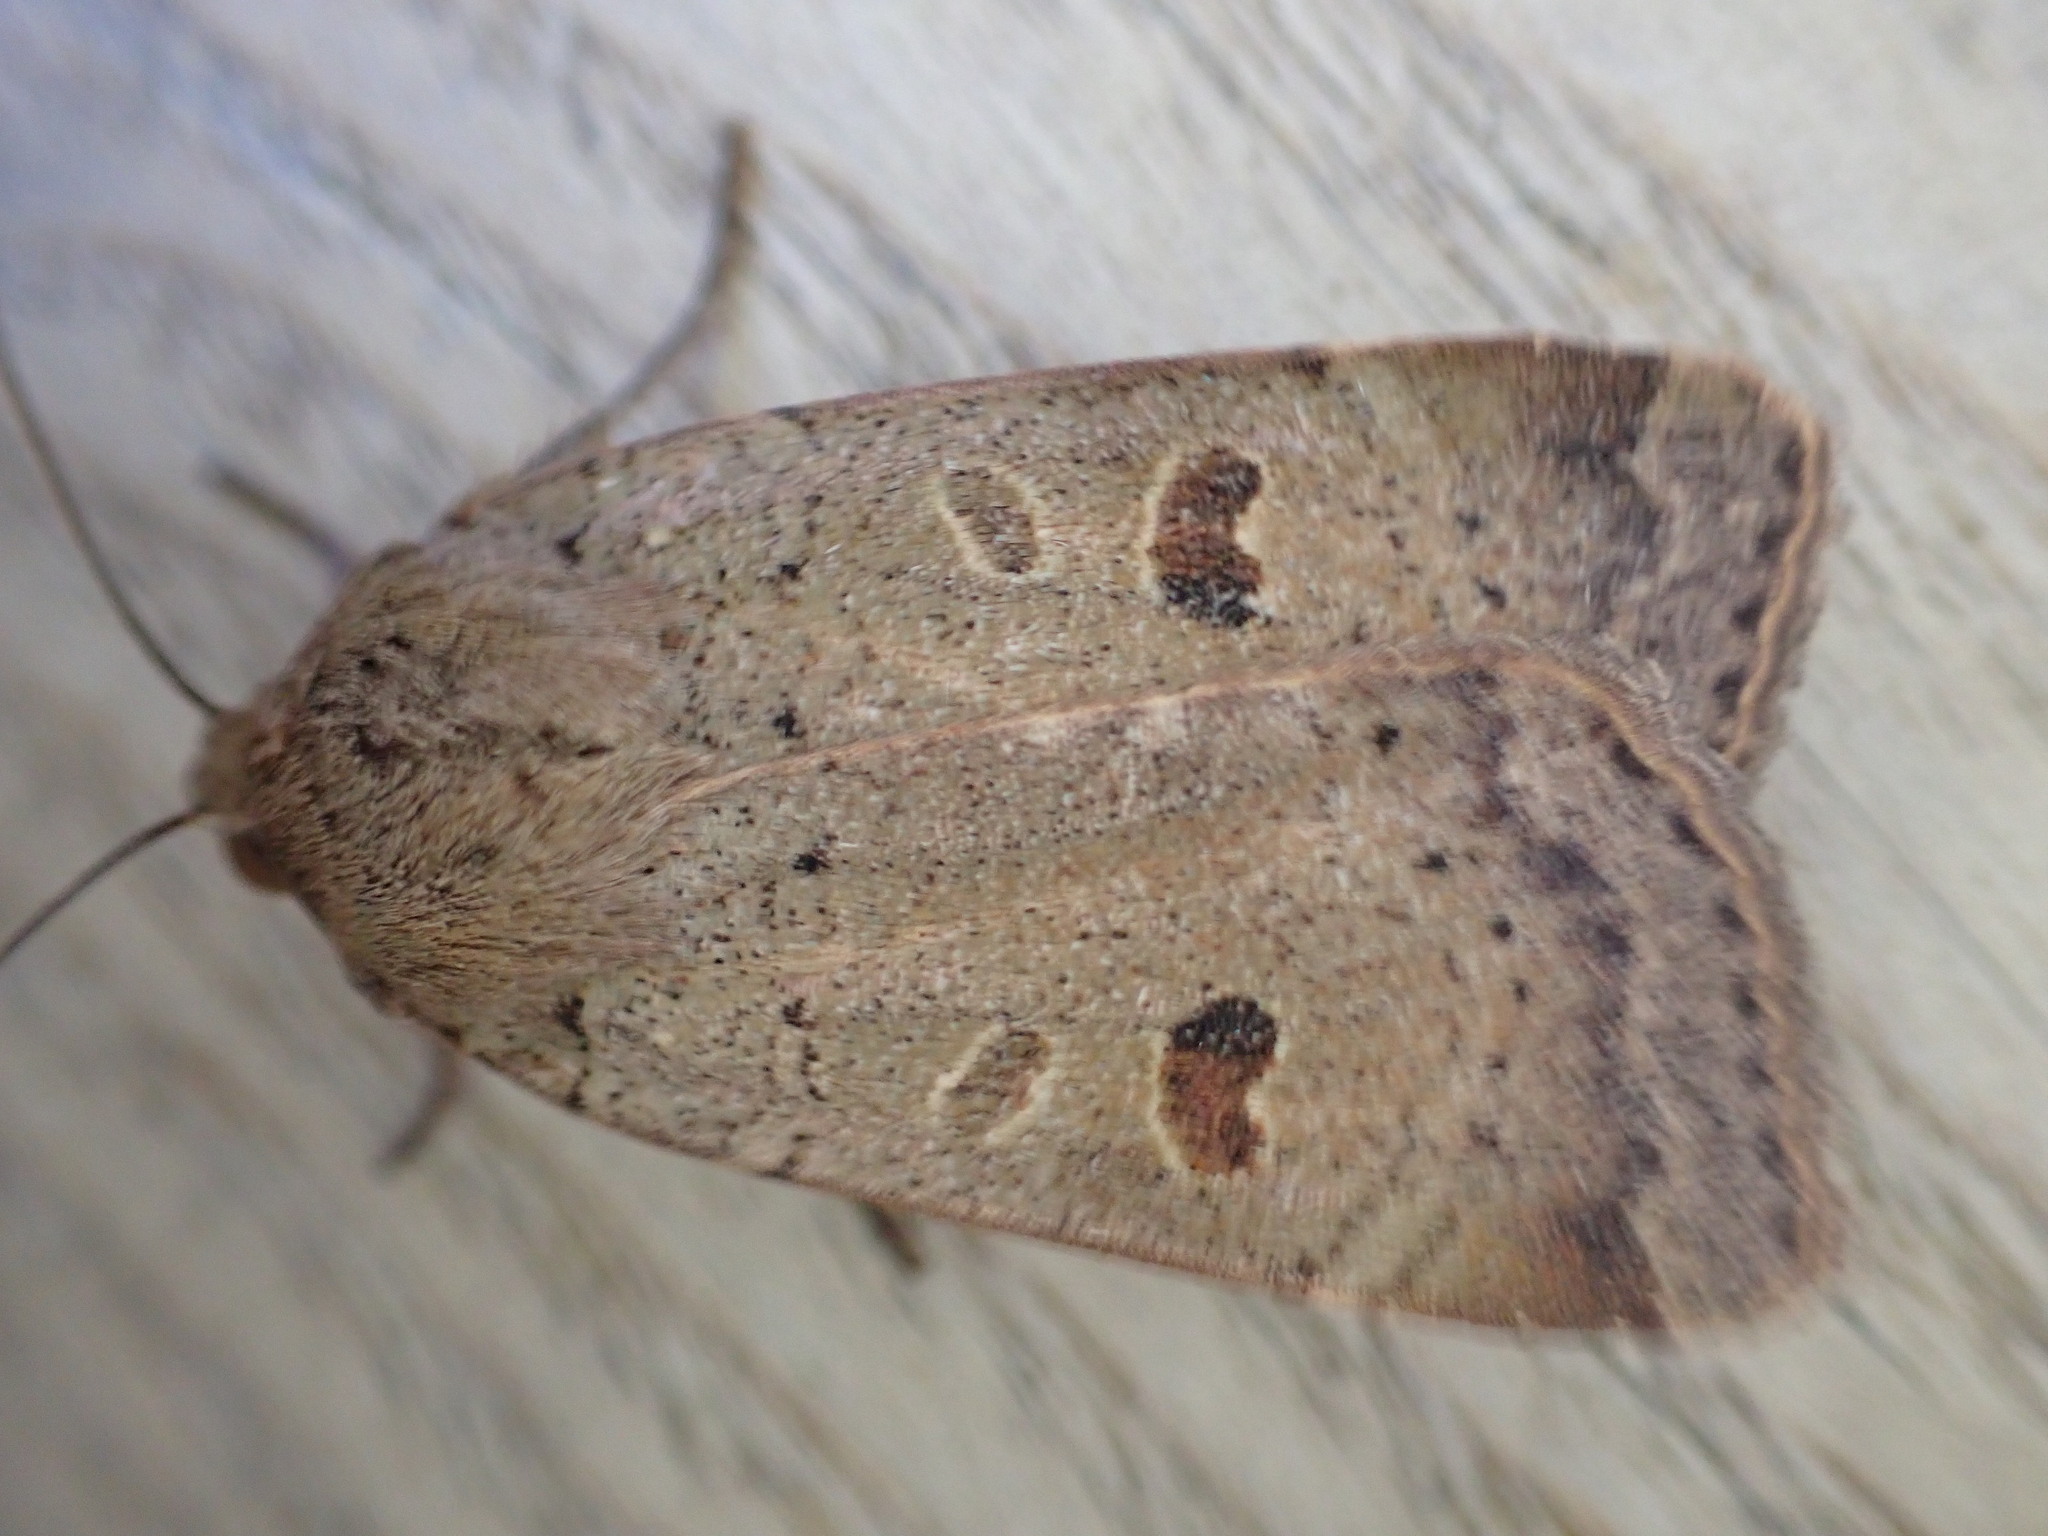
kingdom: Animalia
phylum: Arthropoda
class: Insecta
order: Lepidoptera
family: Noctuidae
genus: Noctua
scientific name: Noctua comes
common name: Lesser yellow underwing
